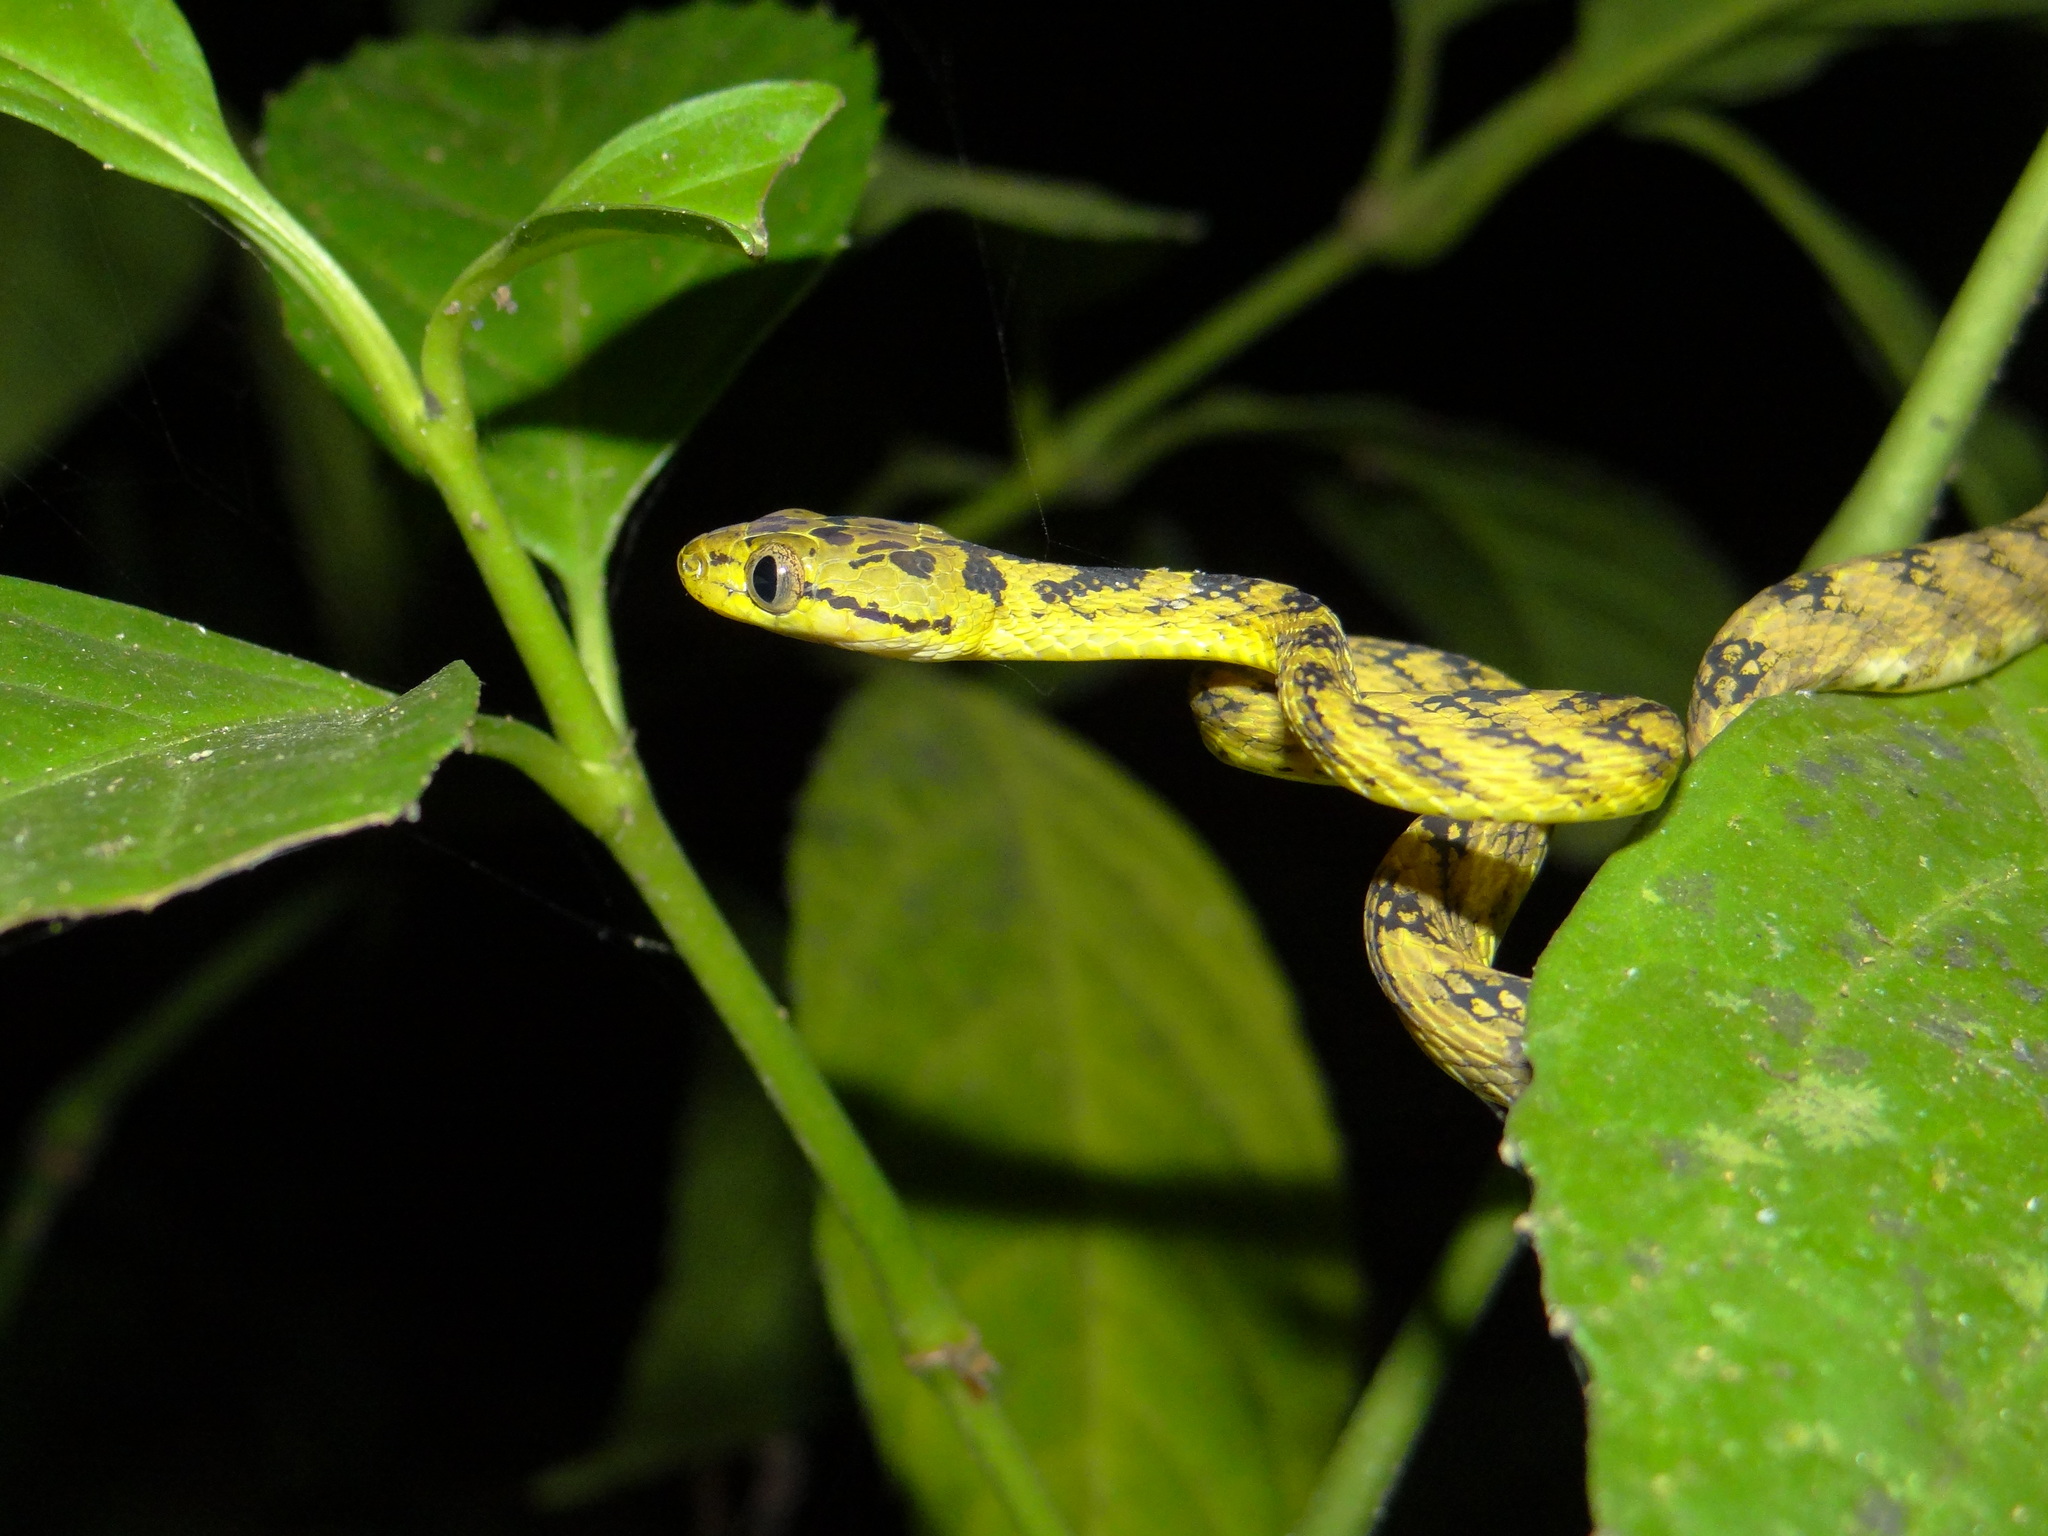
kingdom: Animalia
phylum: Chordata
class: Squamata
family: Colubridae
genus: Boiga
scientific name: Boiga thackerayi
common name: Thackeray’s cat snake
